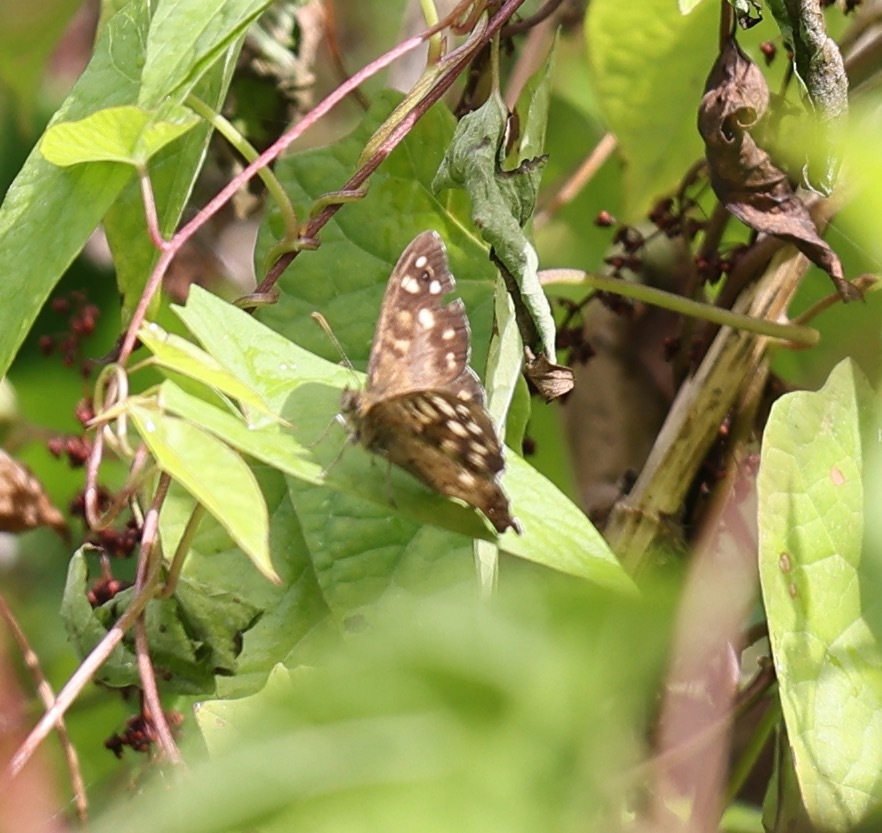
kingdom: Animalia
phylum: Arthropoda
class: Insecta
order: Lepidoptera
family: Nymphalidae
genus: Pararge
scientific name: Pararge aegeria
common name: Speckled wood
